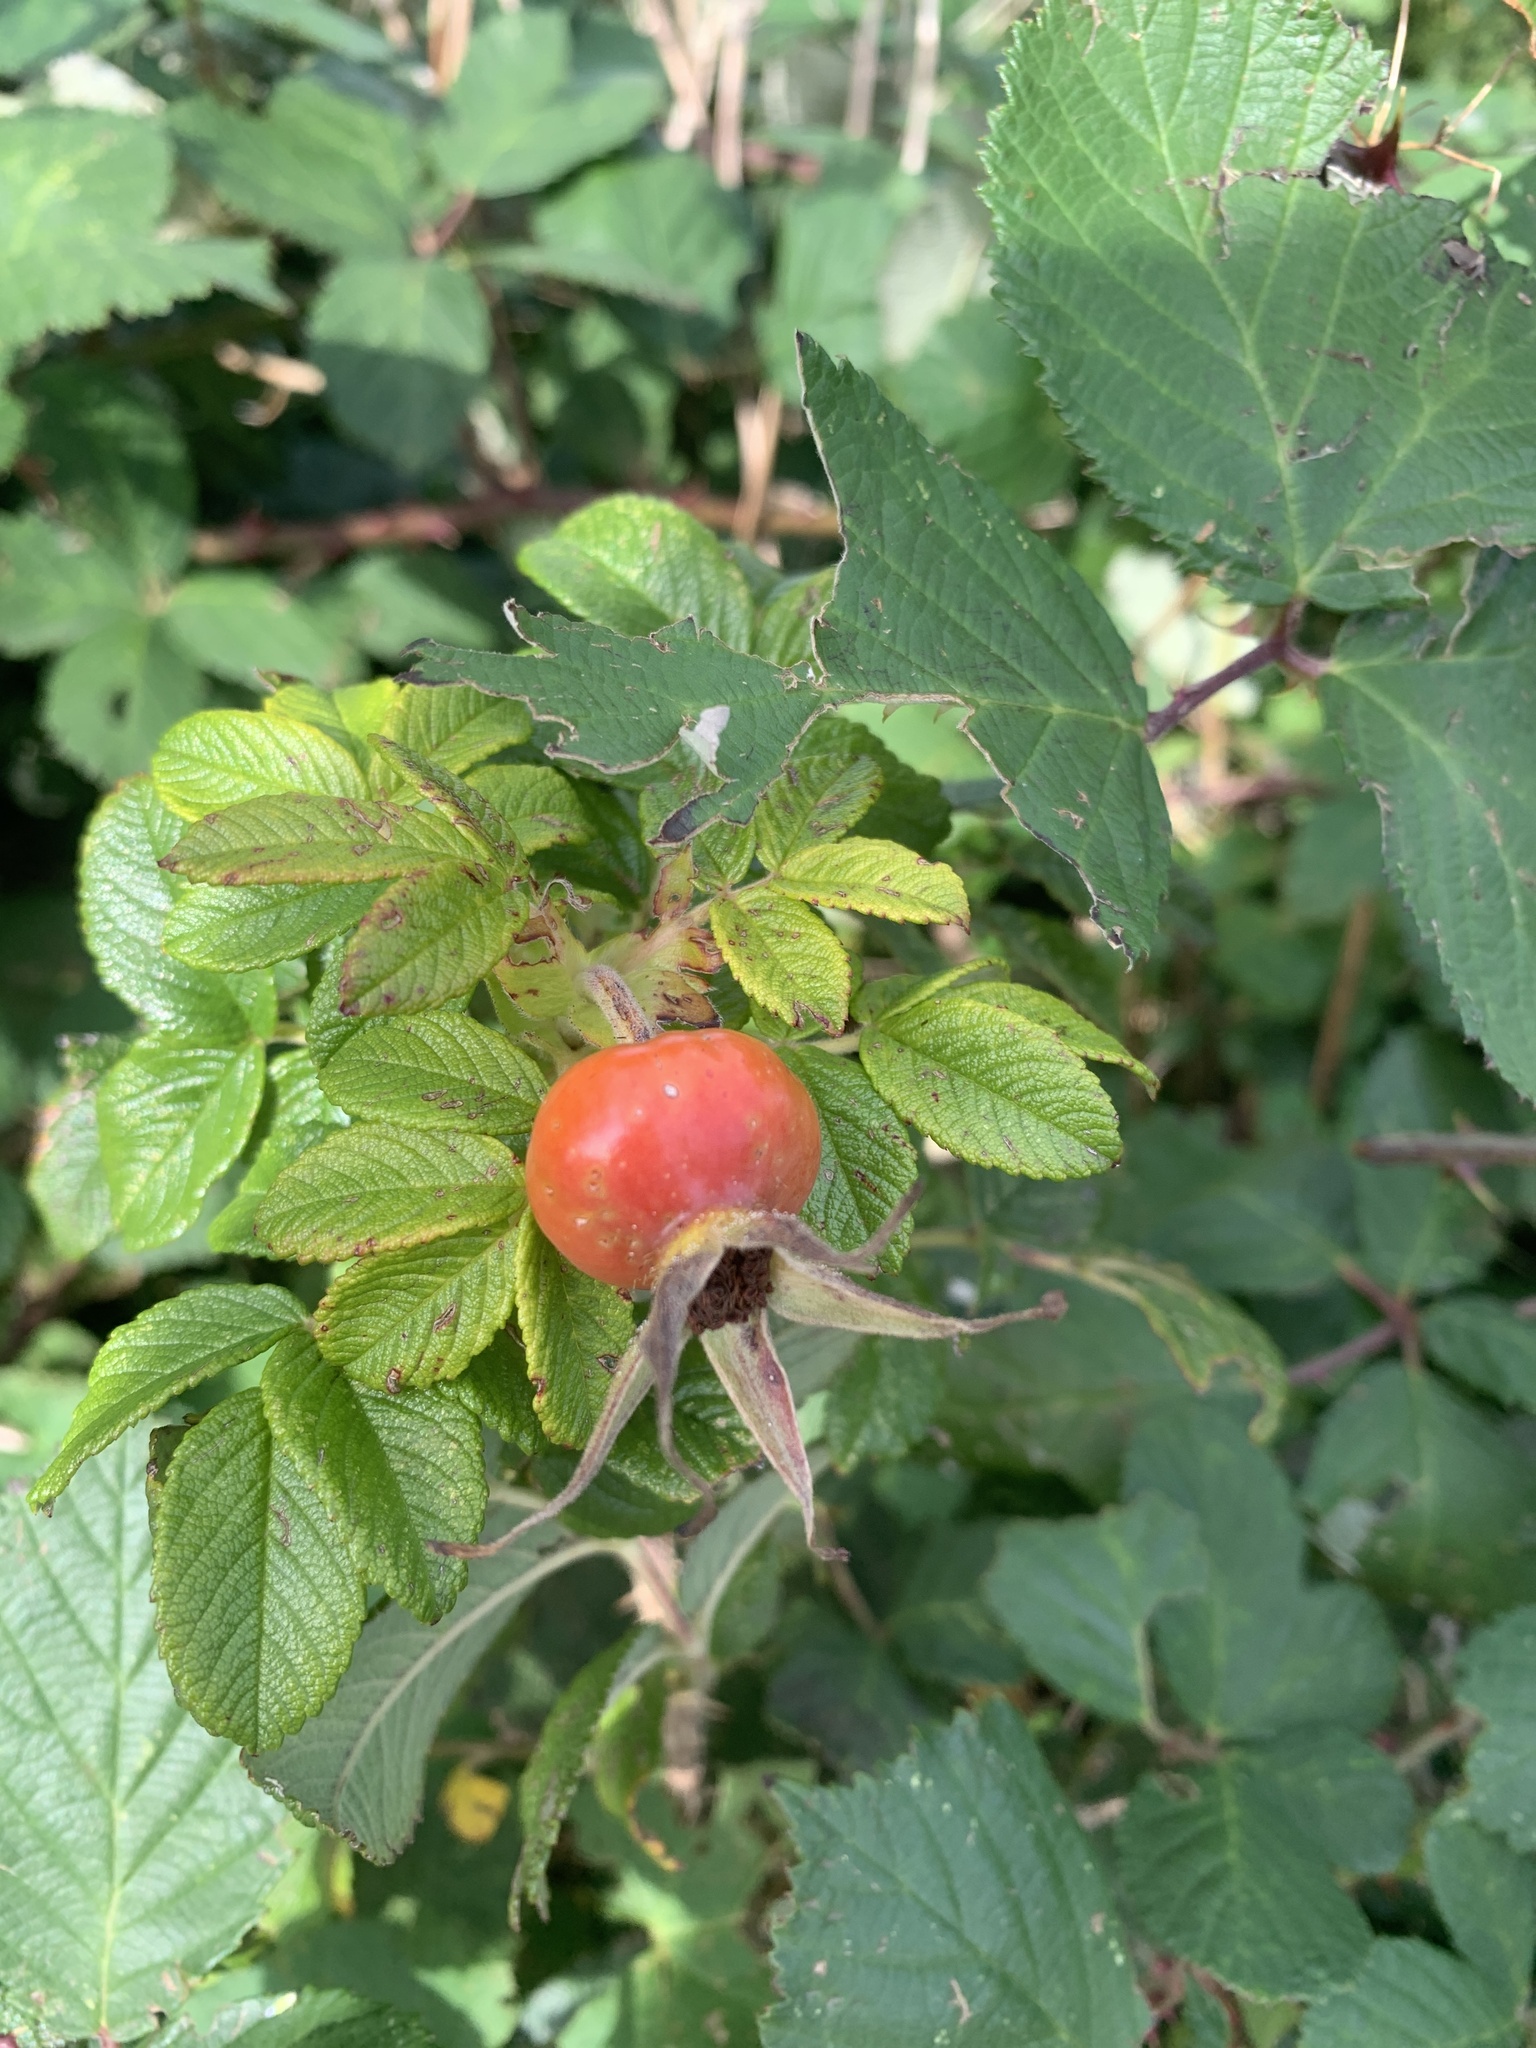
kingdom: Plantae
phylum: Tracheophyta
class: Magnoliopsida
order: Rosales
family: Rosaceae
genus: Rosa
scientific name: Rosa rugosa
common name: Japanese rose
